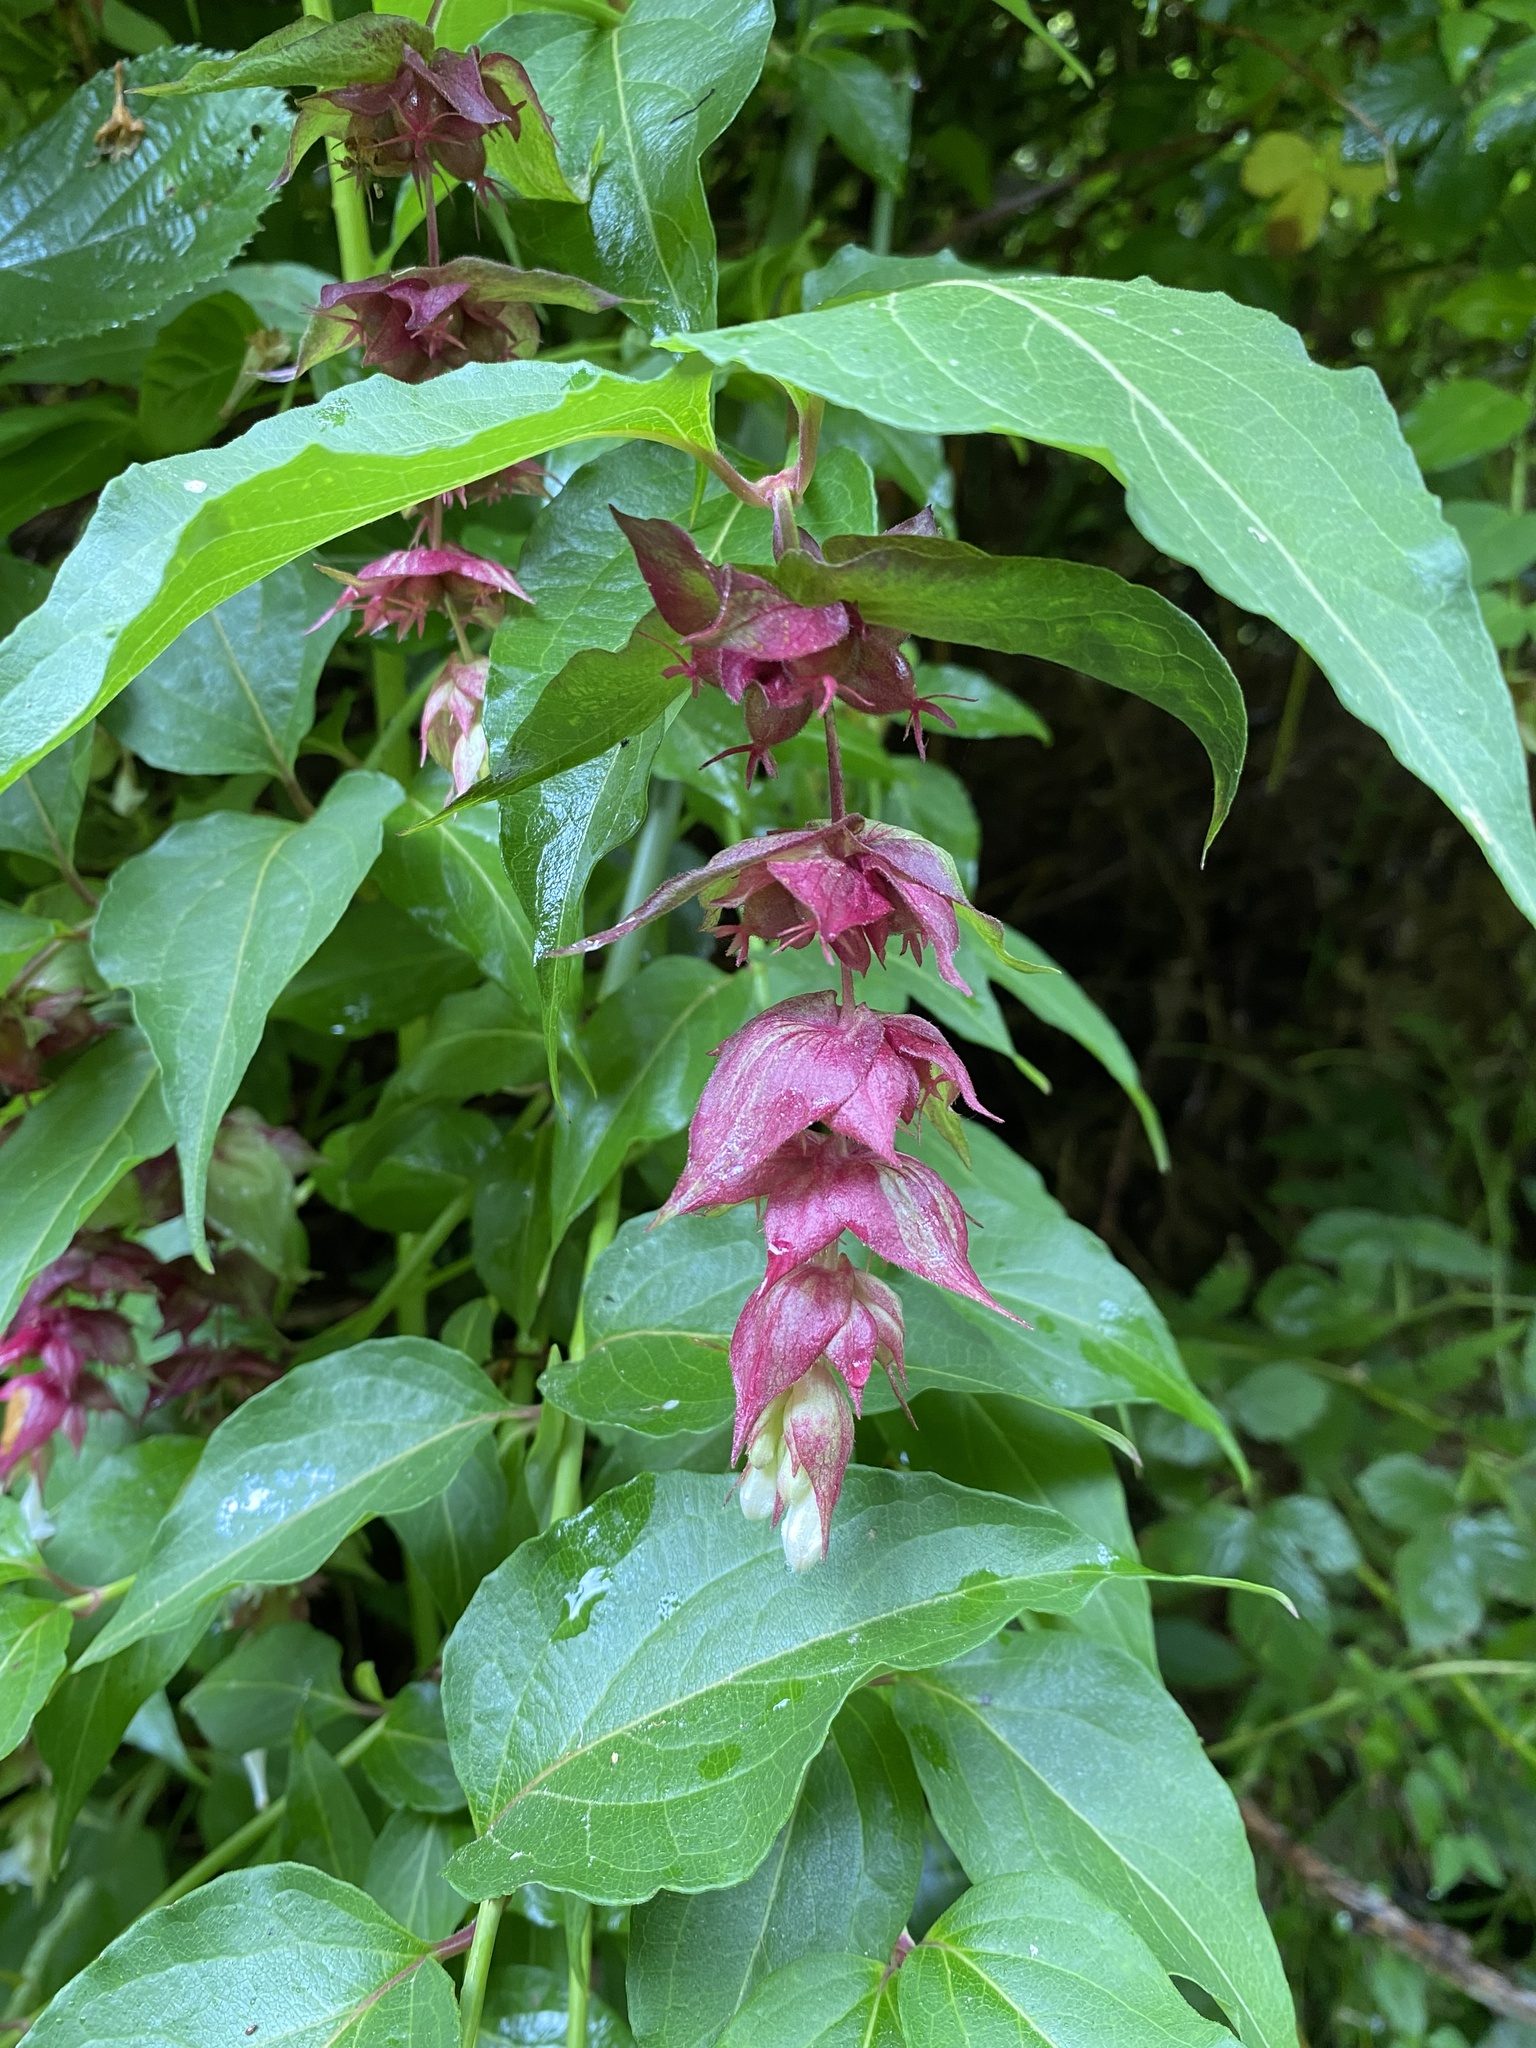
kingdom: Plantae
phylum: Tracheophyta
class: Magnoliopsida
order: Dipsacales
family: Caprifoliaceae
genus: Leycesteria
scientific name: Leycesteria formosa
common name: Himalayan honeysuckle
